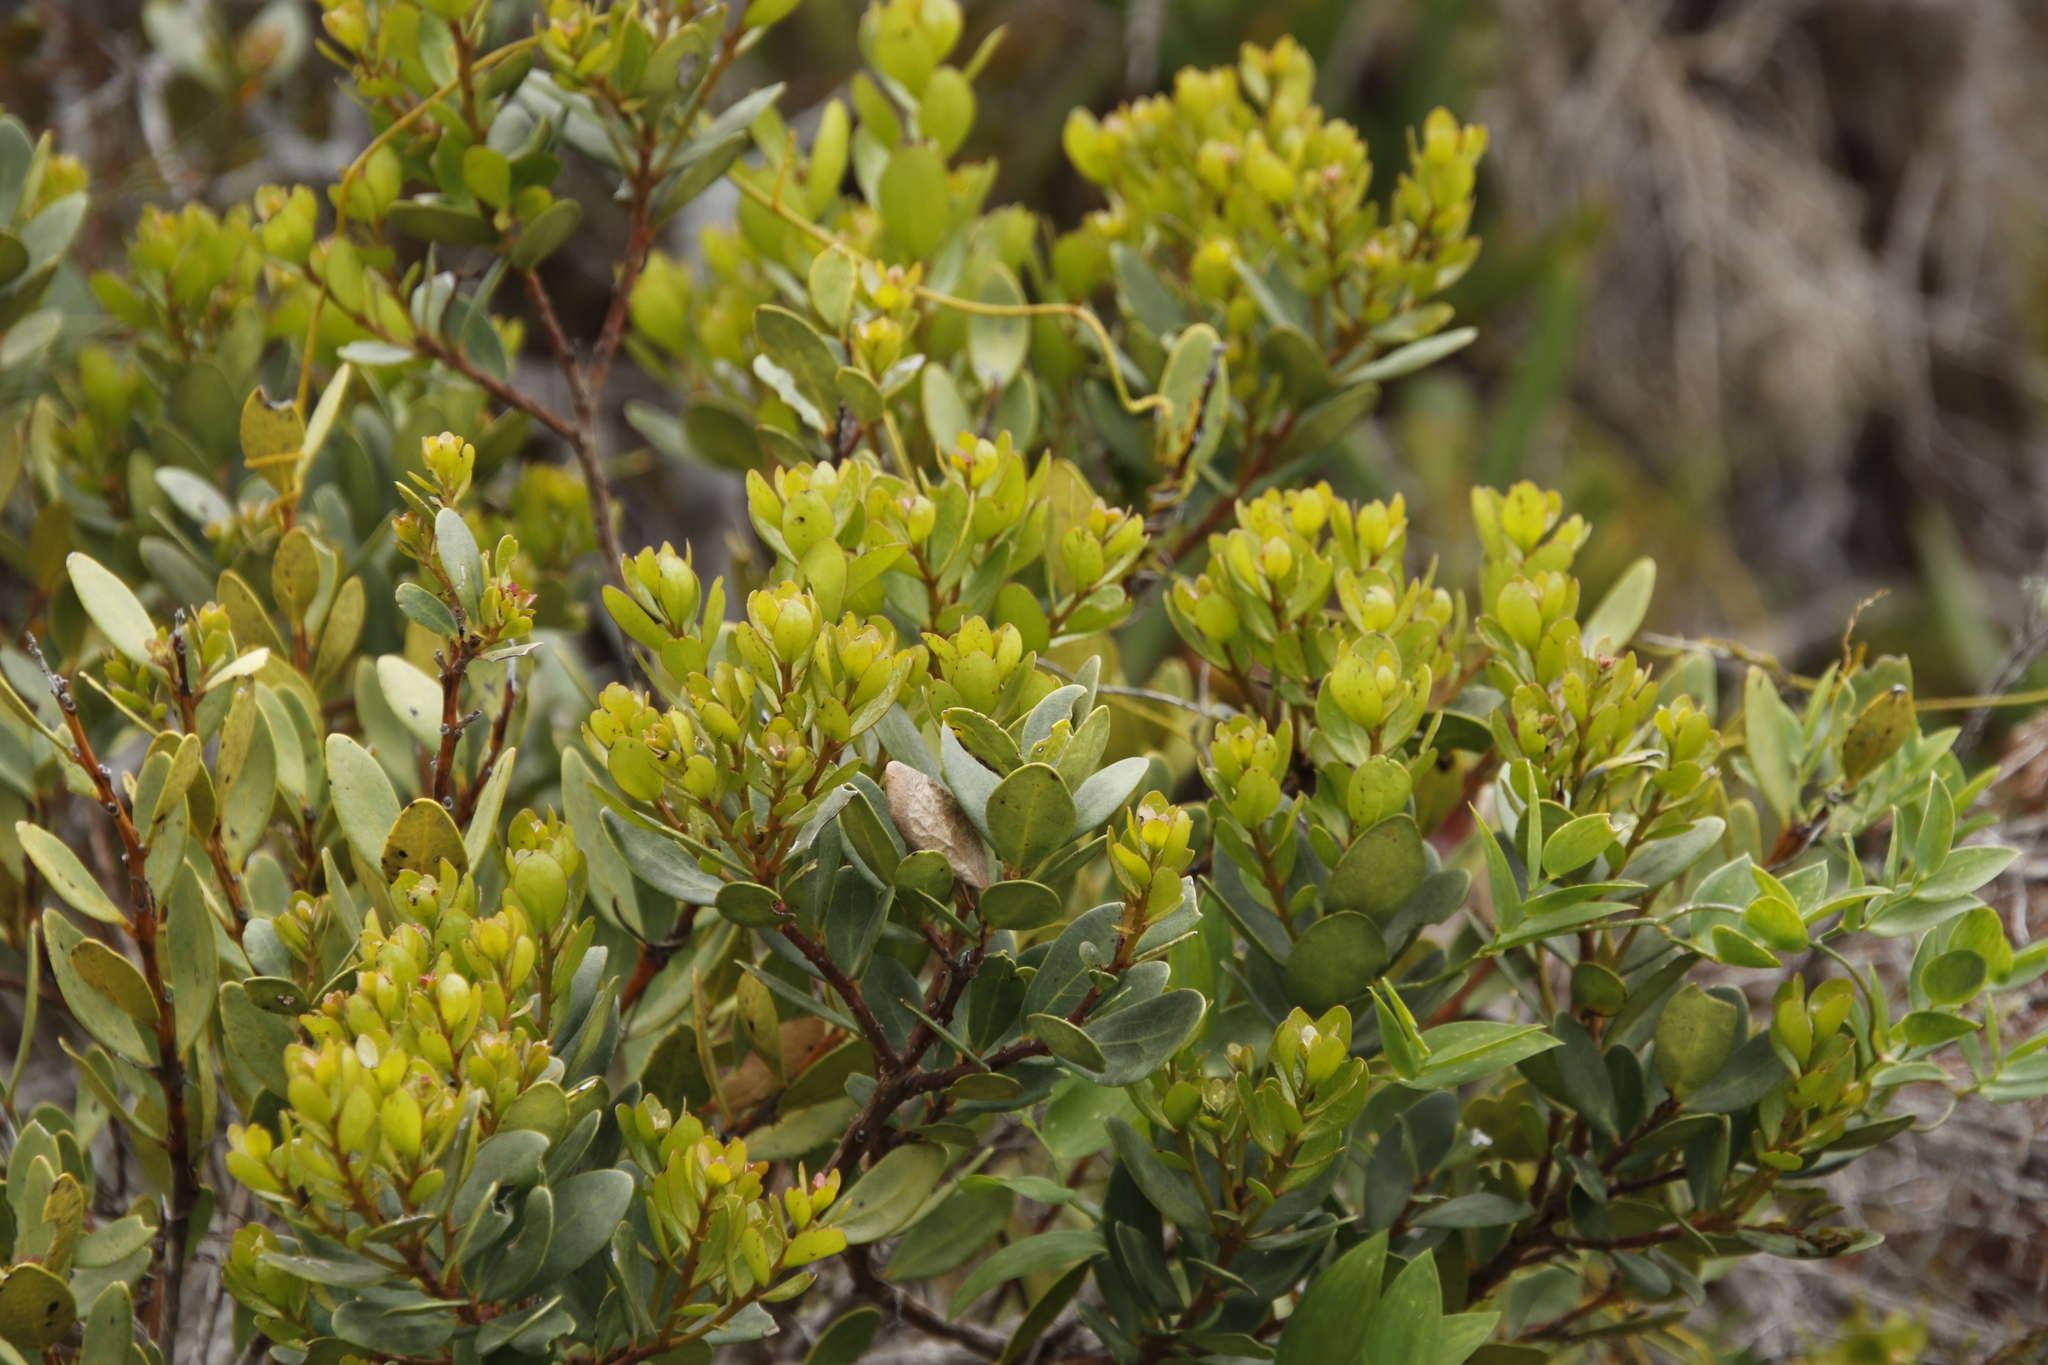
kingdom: Plantae
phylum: Tracheophyta
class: Magnoliopsida
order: Ericales
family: Ebenaceae
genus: Euclea
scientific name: Euclea racemosa
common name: Dune guarri
